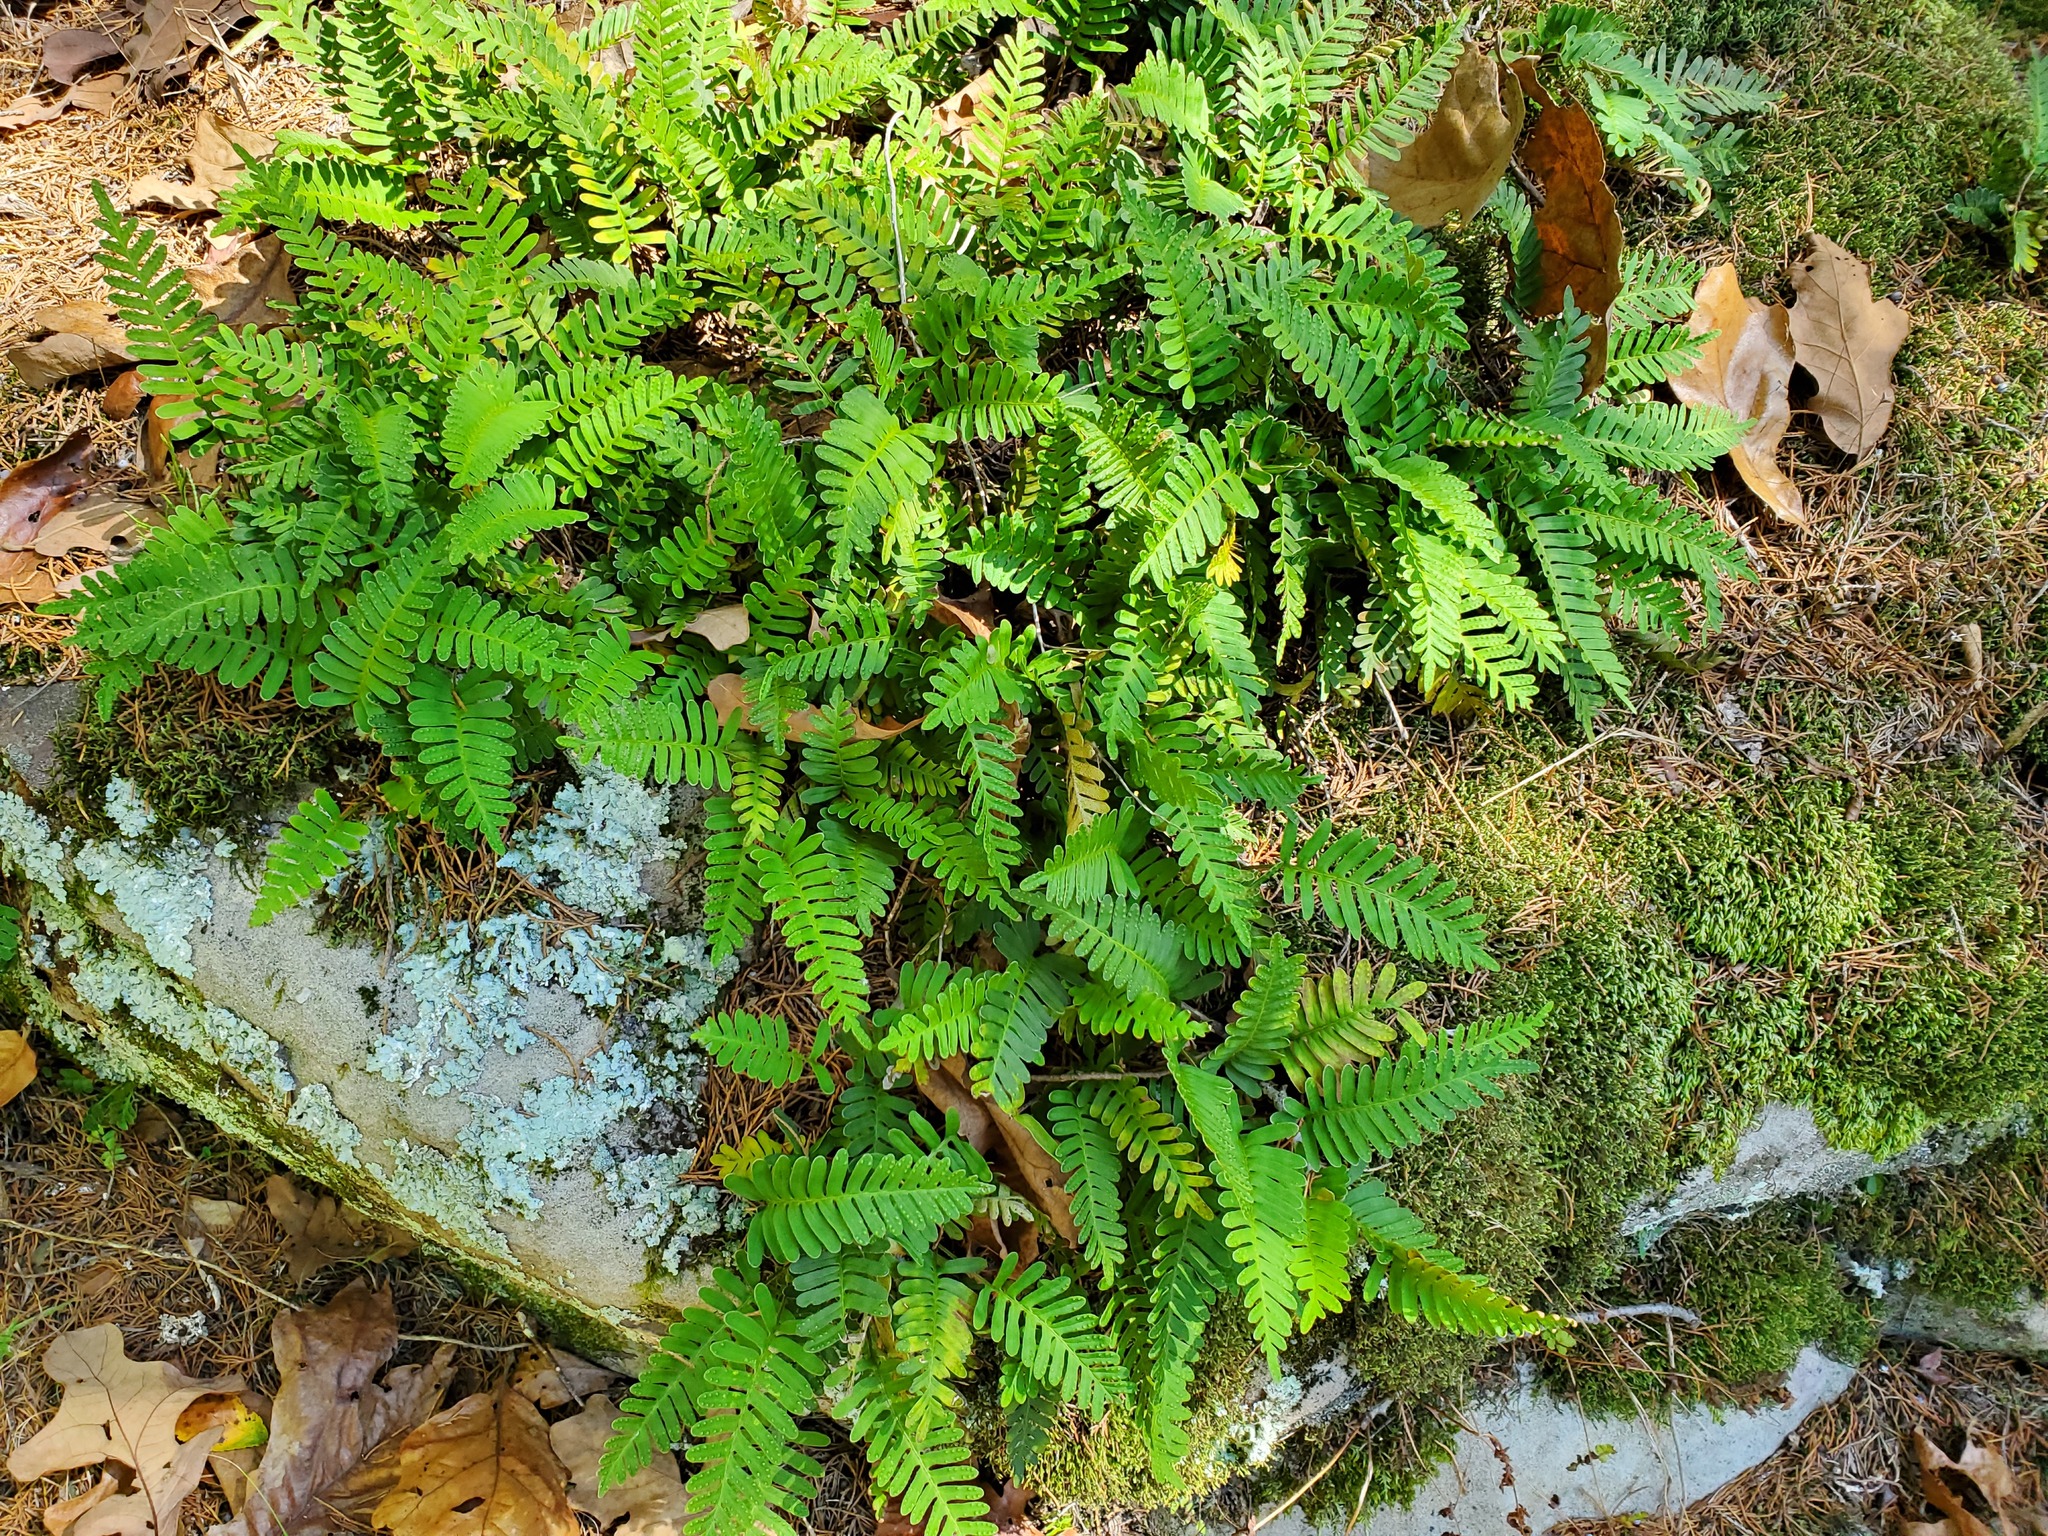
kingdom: Plantae
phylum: Tracheophyta
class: Polypodiopsida
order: Polypodiales
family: Polypodiaceae
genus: Polypodium
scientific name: Polypodium virginianum
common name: American wall fern
